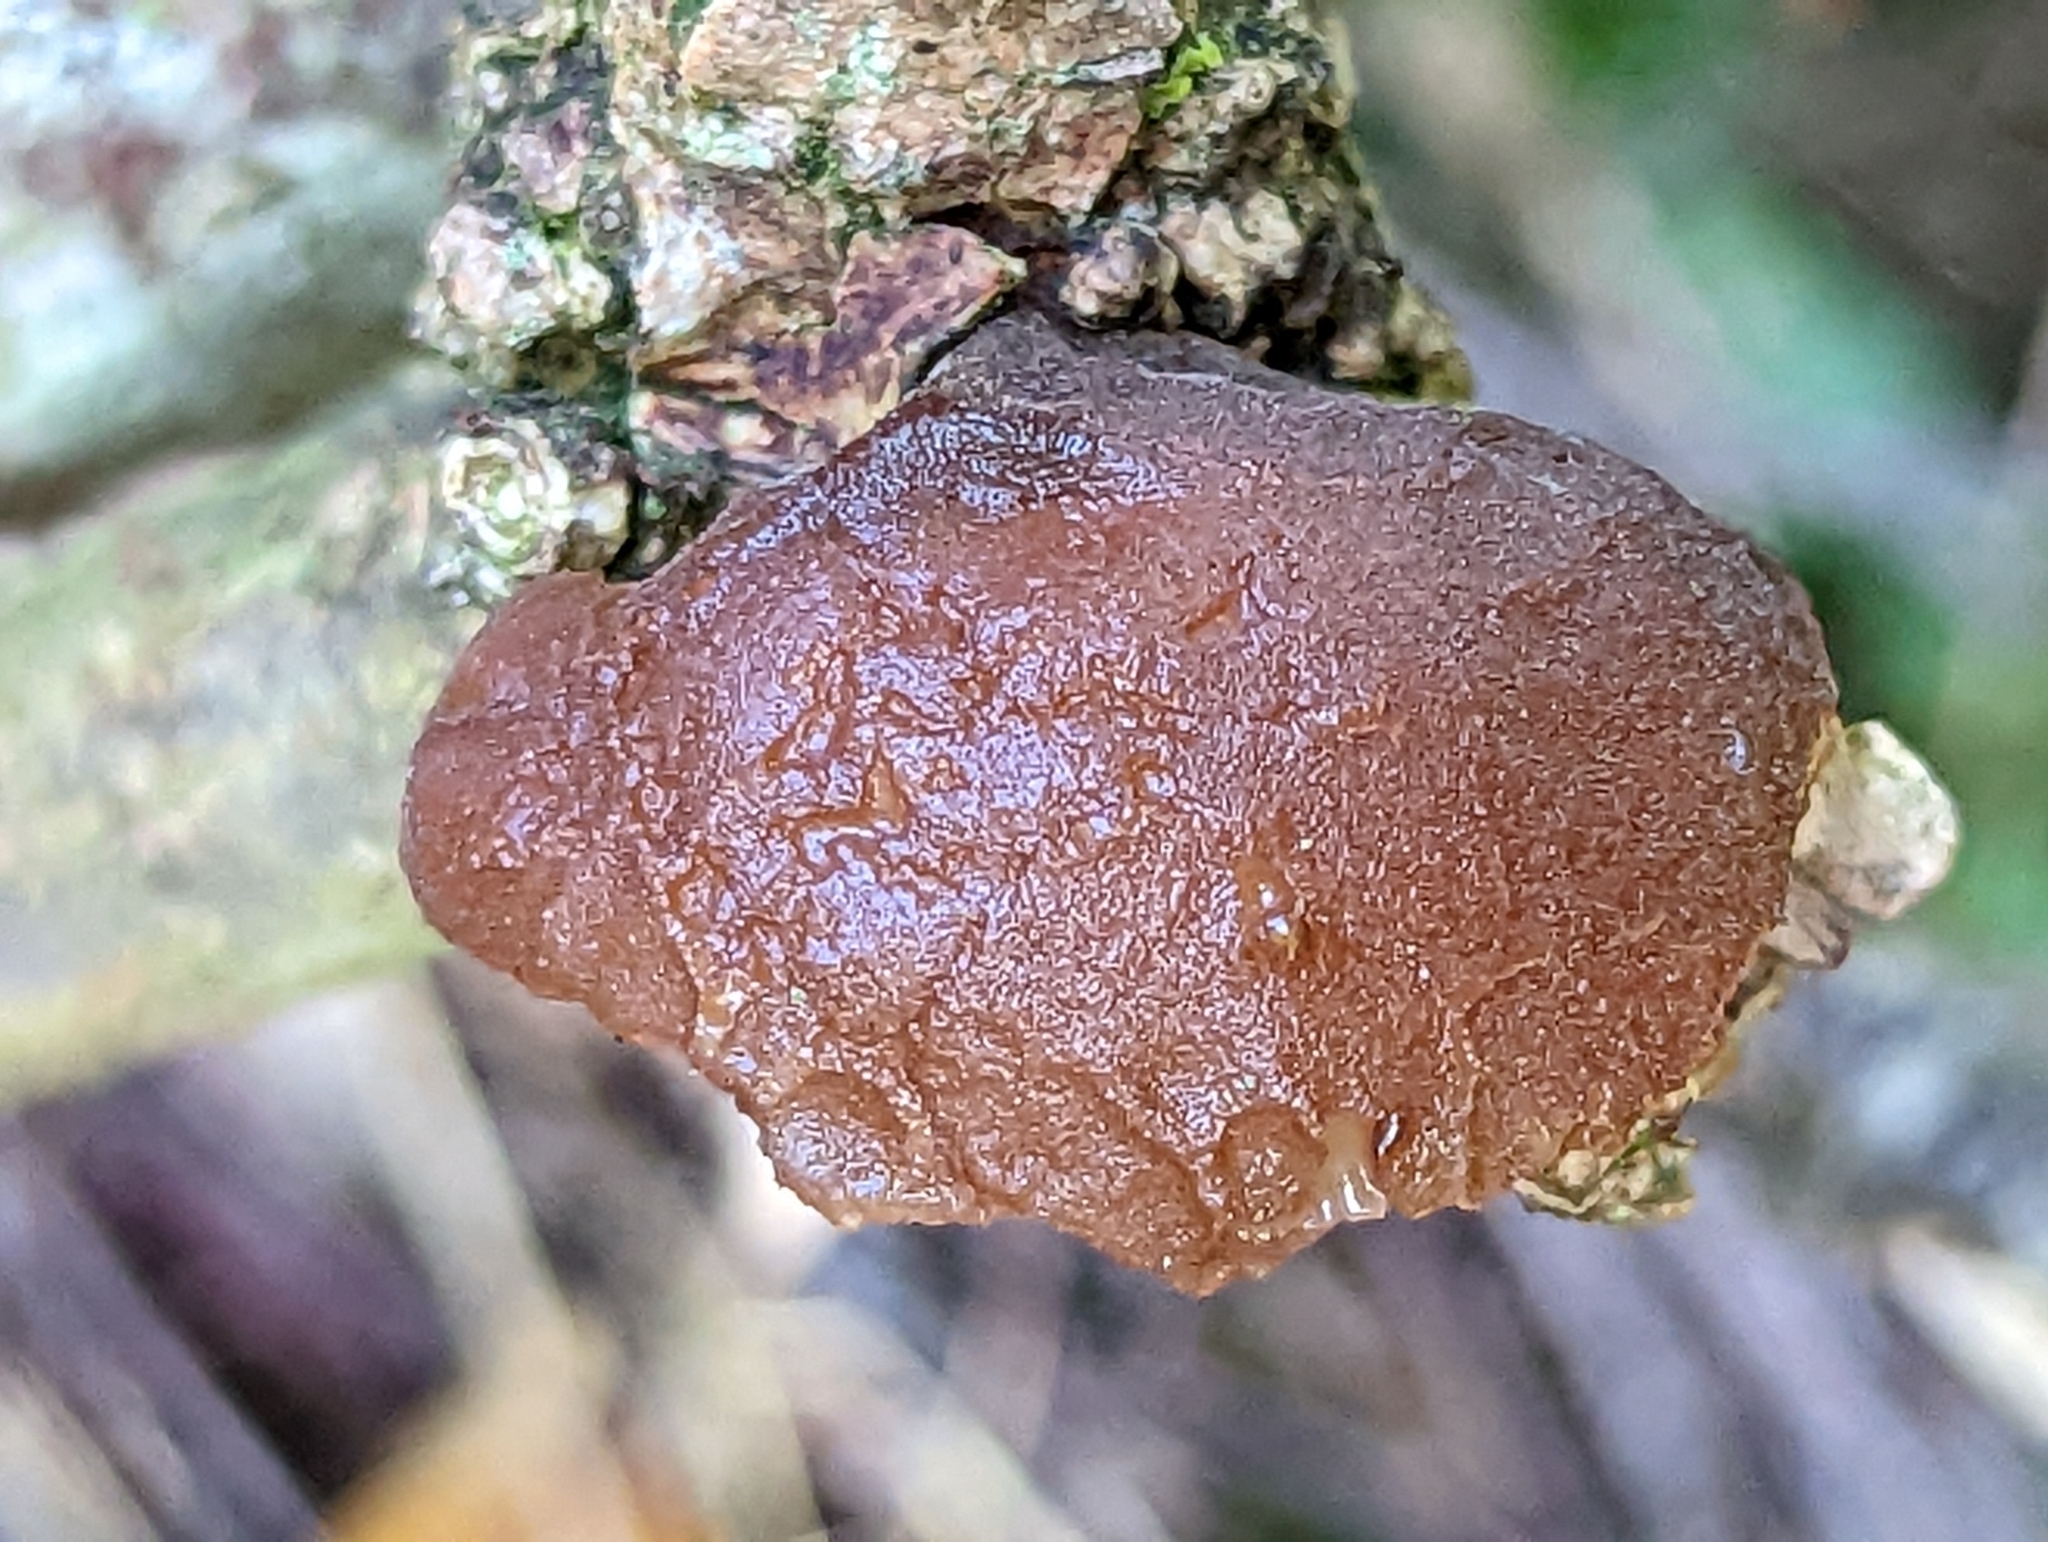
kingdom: Fungi
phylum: Basidiomycota
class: Agaricomycetes
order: Auriculariales
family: Auriculariaceae
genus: Auricularia
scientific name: Auricularia auricula-judae
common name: Jelly ear
